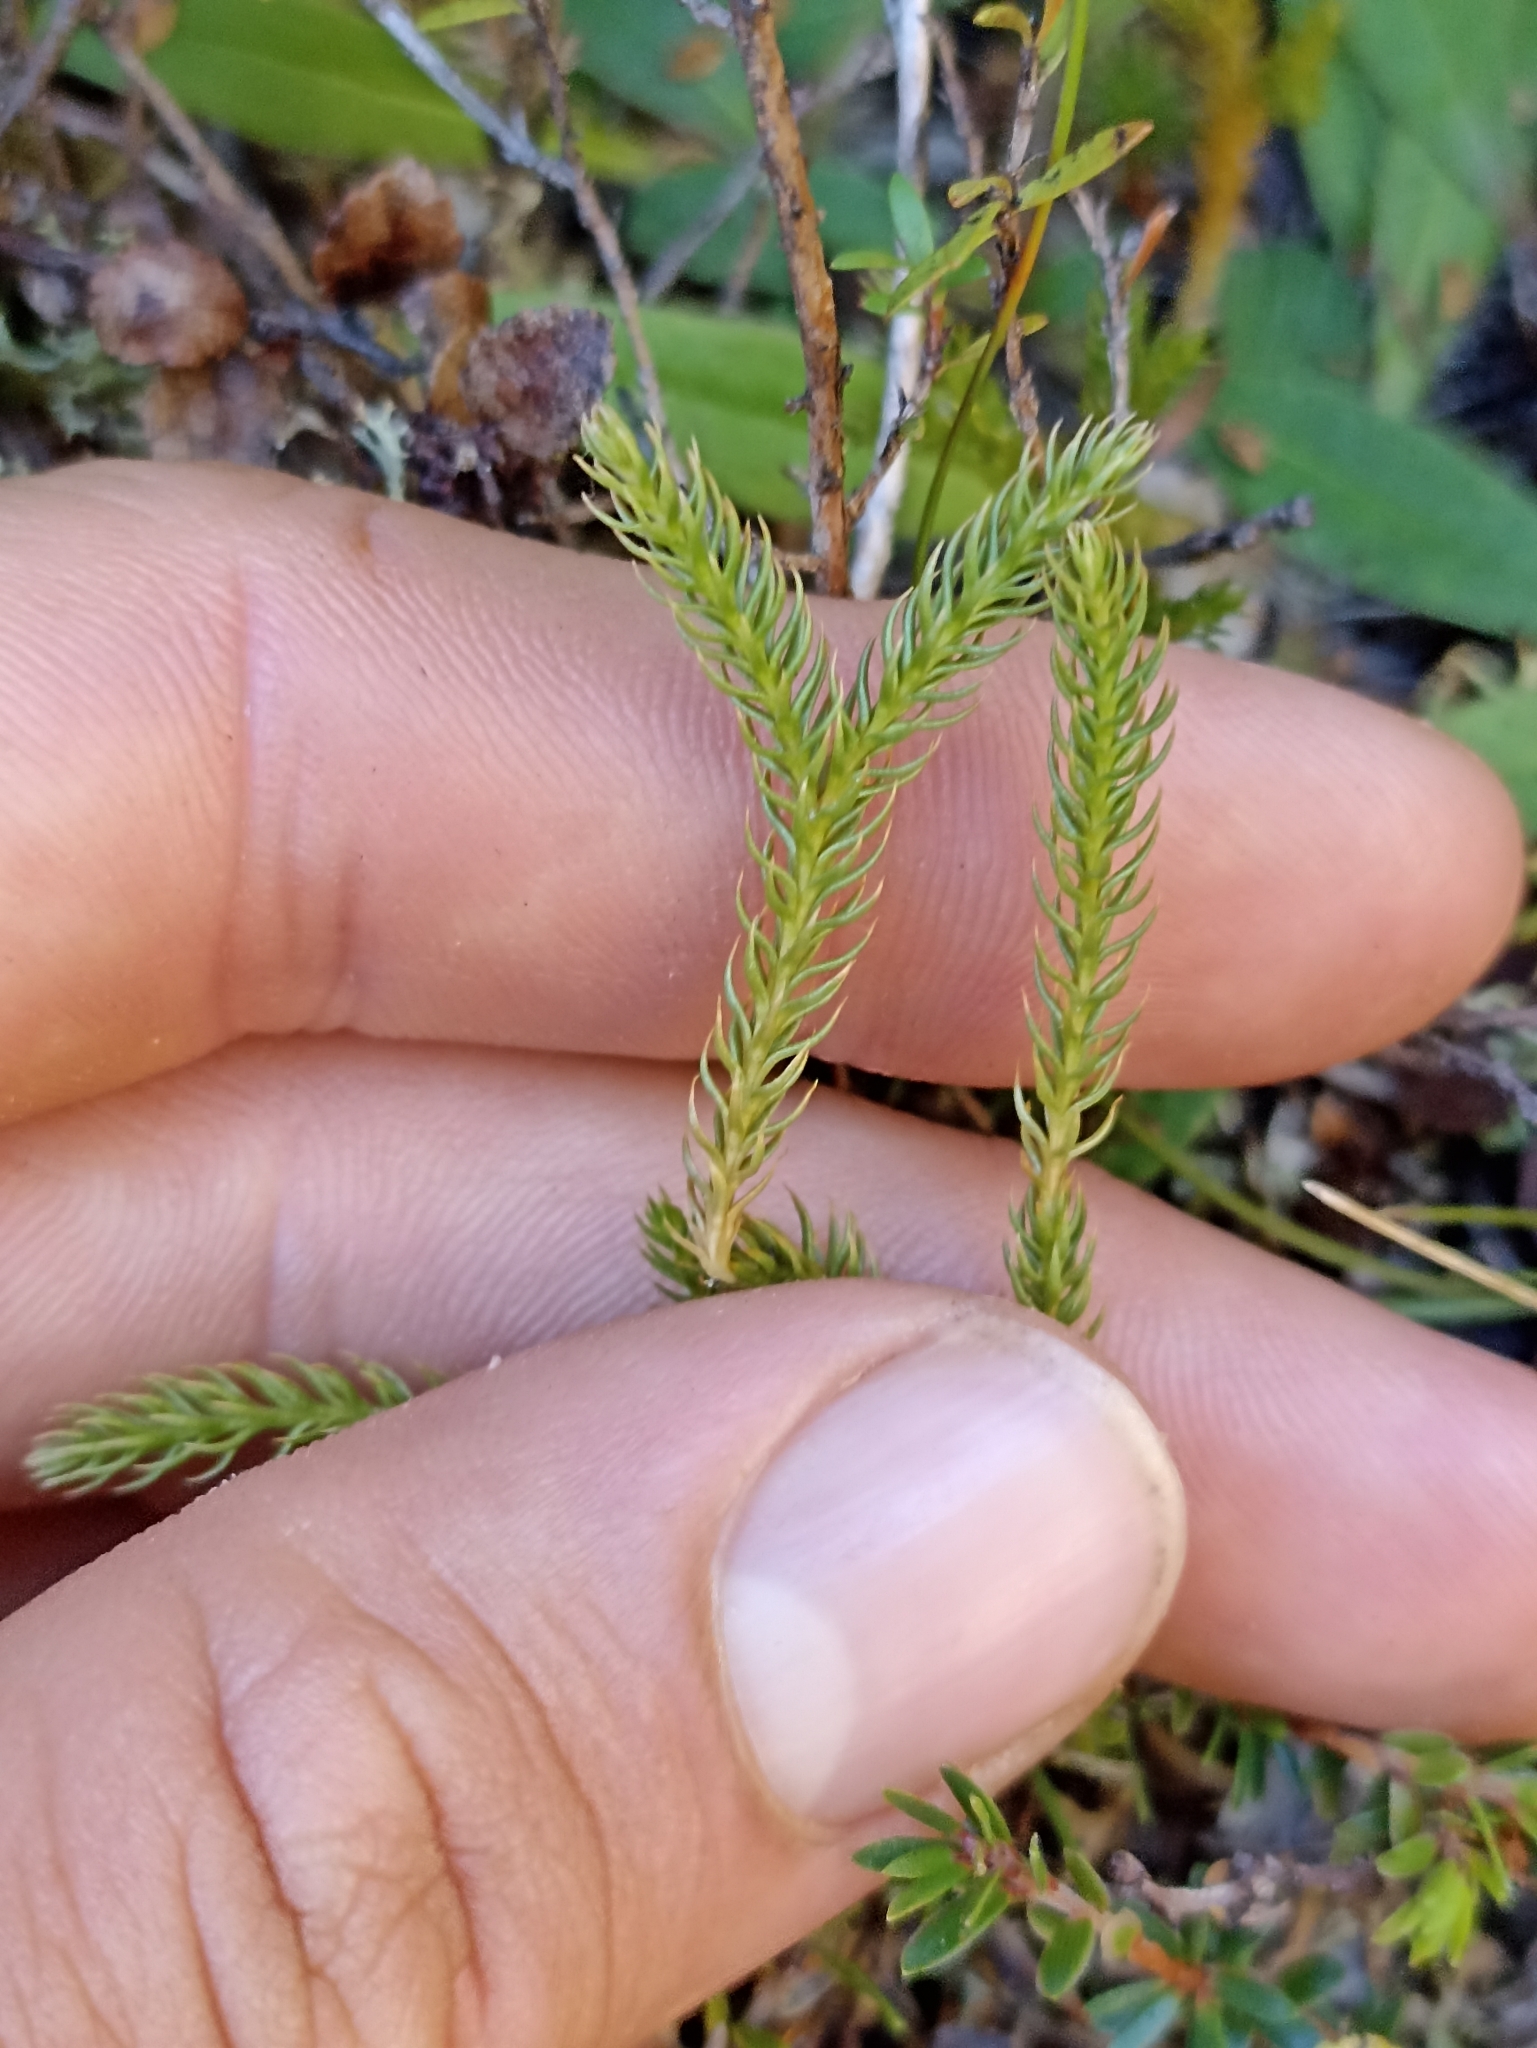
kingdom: Plantae
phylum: Tracheophyta
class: Lycopodiopsida
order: Lycopodiales
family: Lycopodiaceae
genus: Austrolycopodium
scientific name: Austrolycopodium fastigiatum
